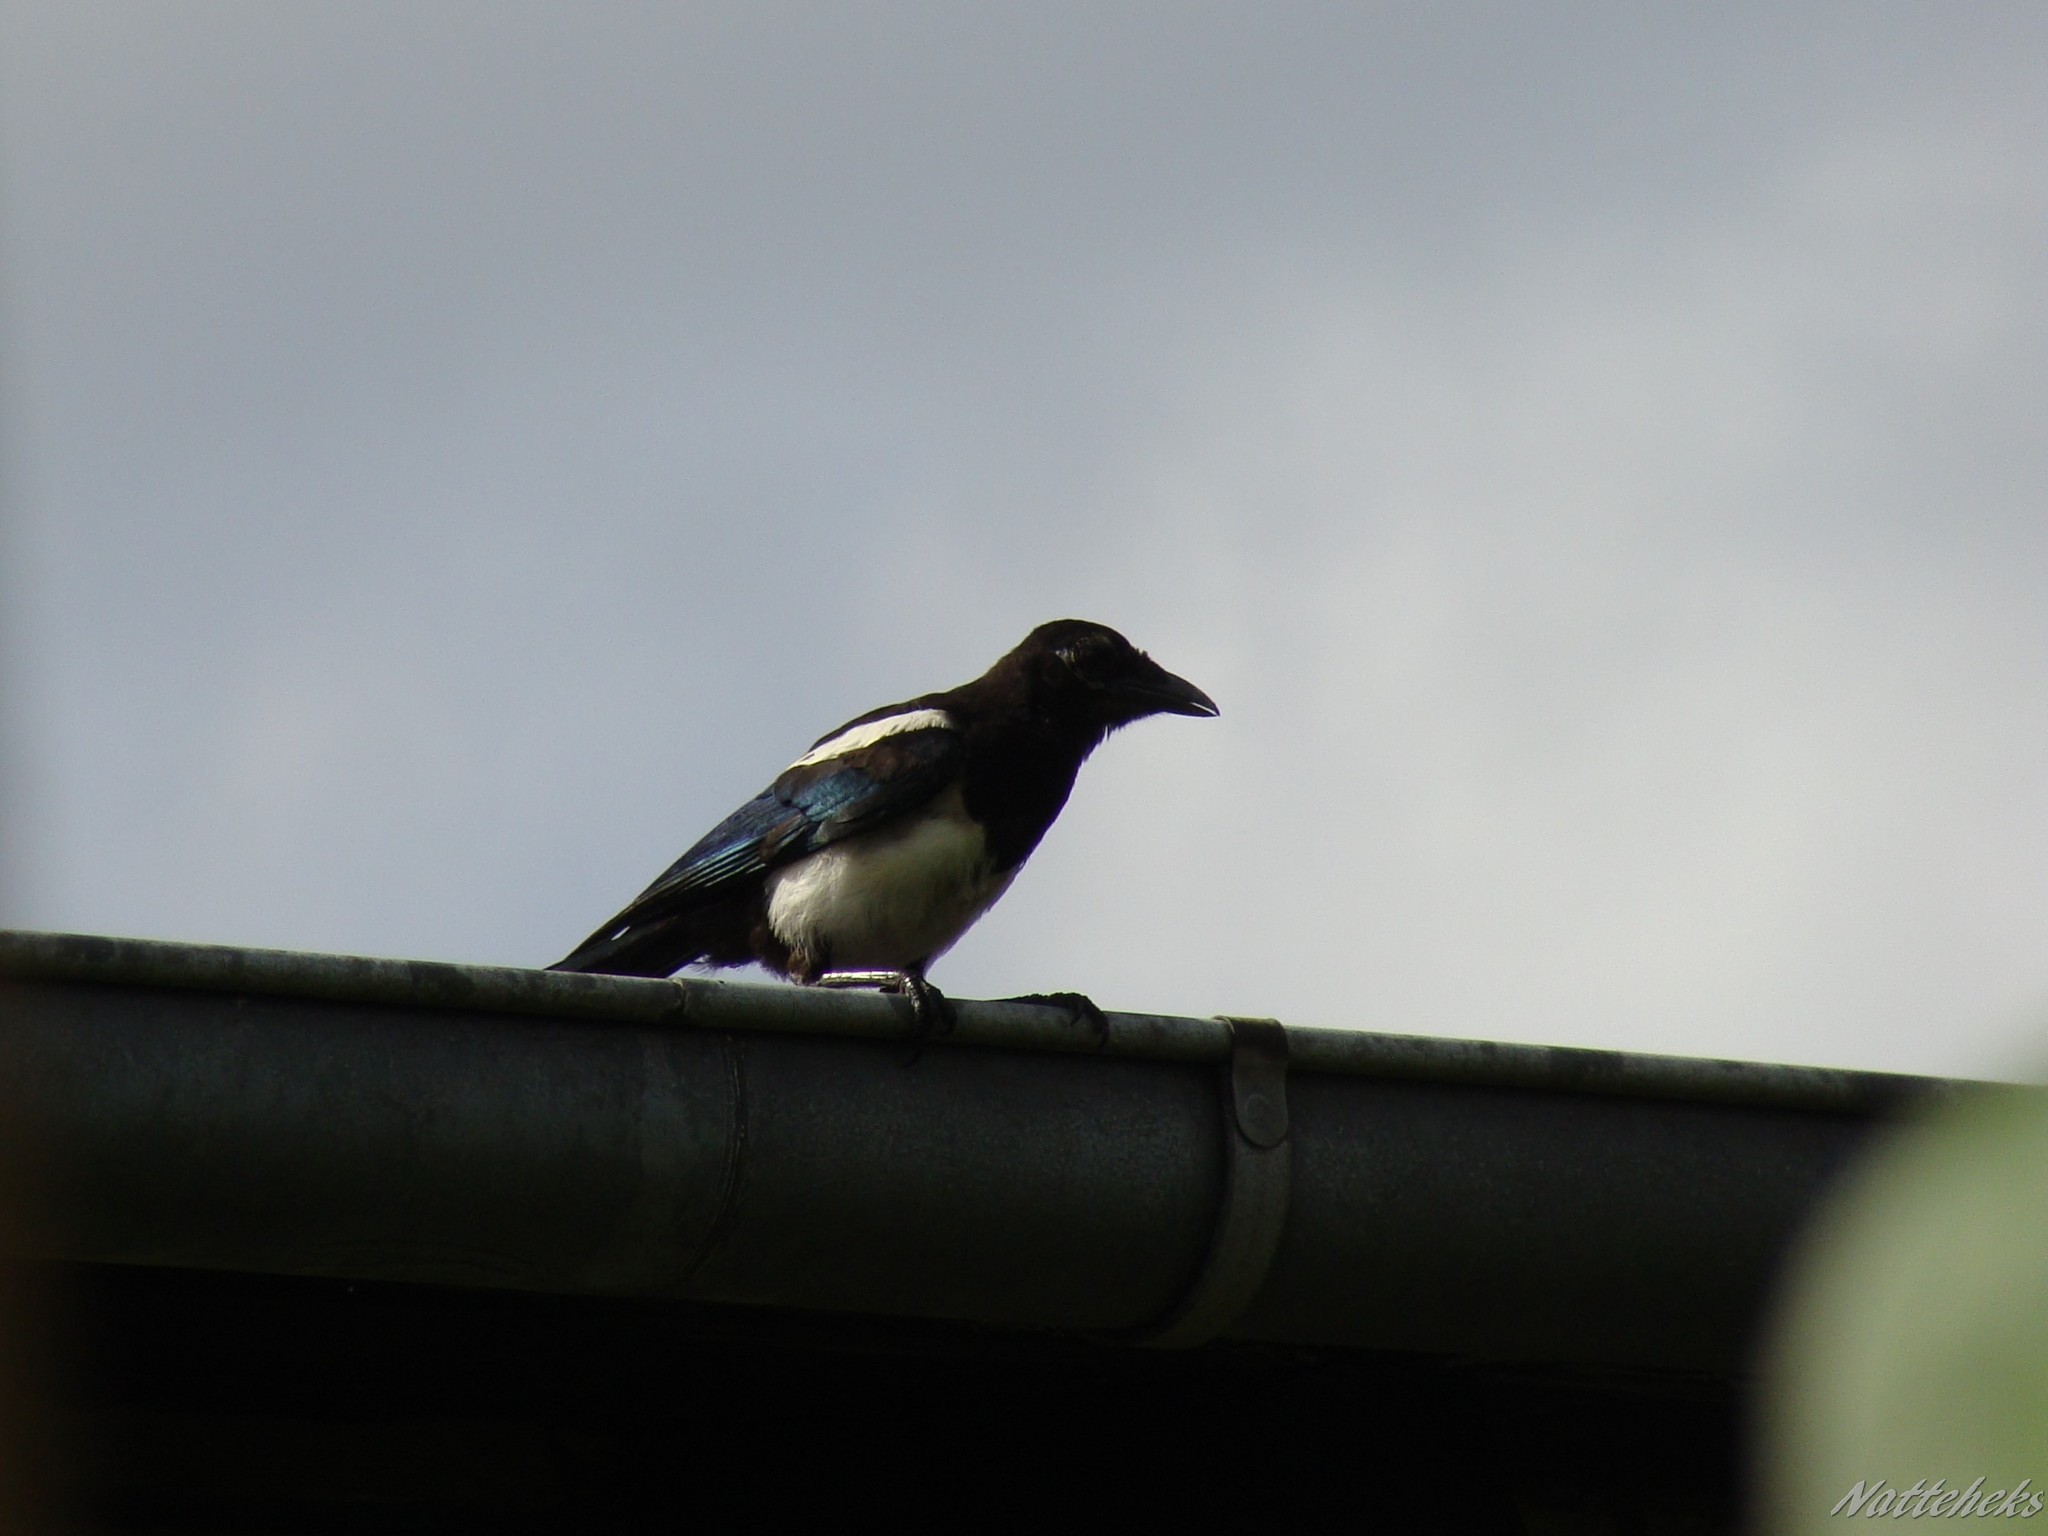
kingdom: Animalia
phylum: Chordata
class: Aves
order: Passeriformes
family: Corvidae
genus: Pica
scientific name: Pica pica
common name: Eurasian magpie
